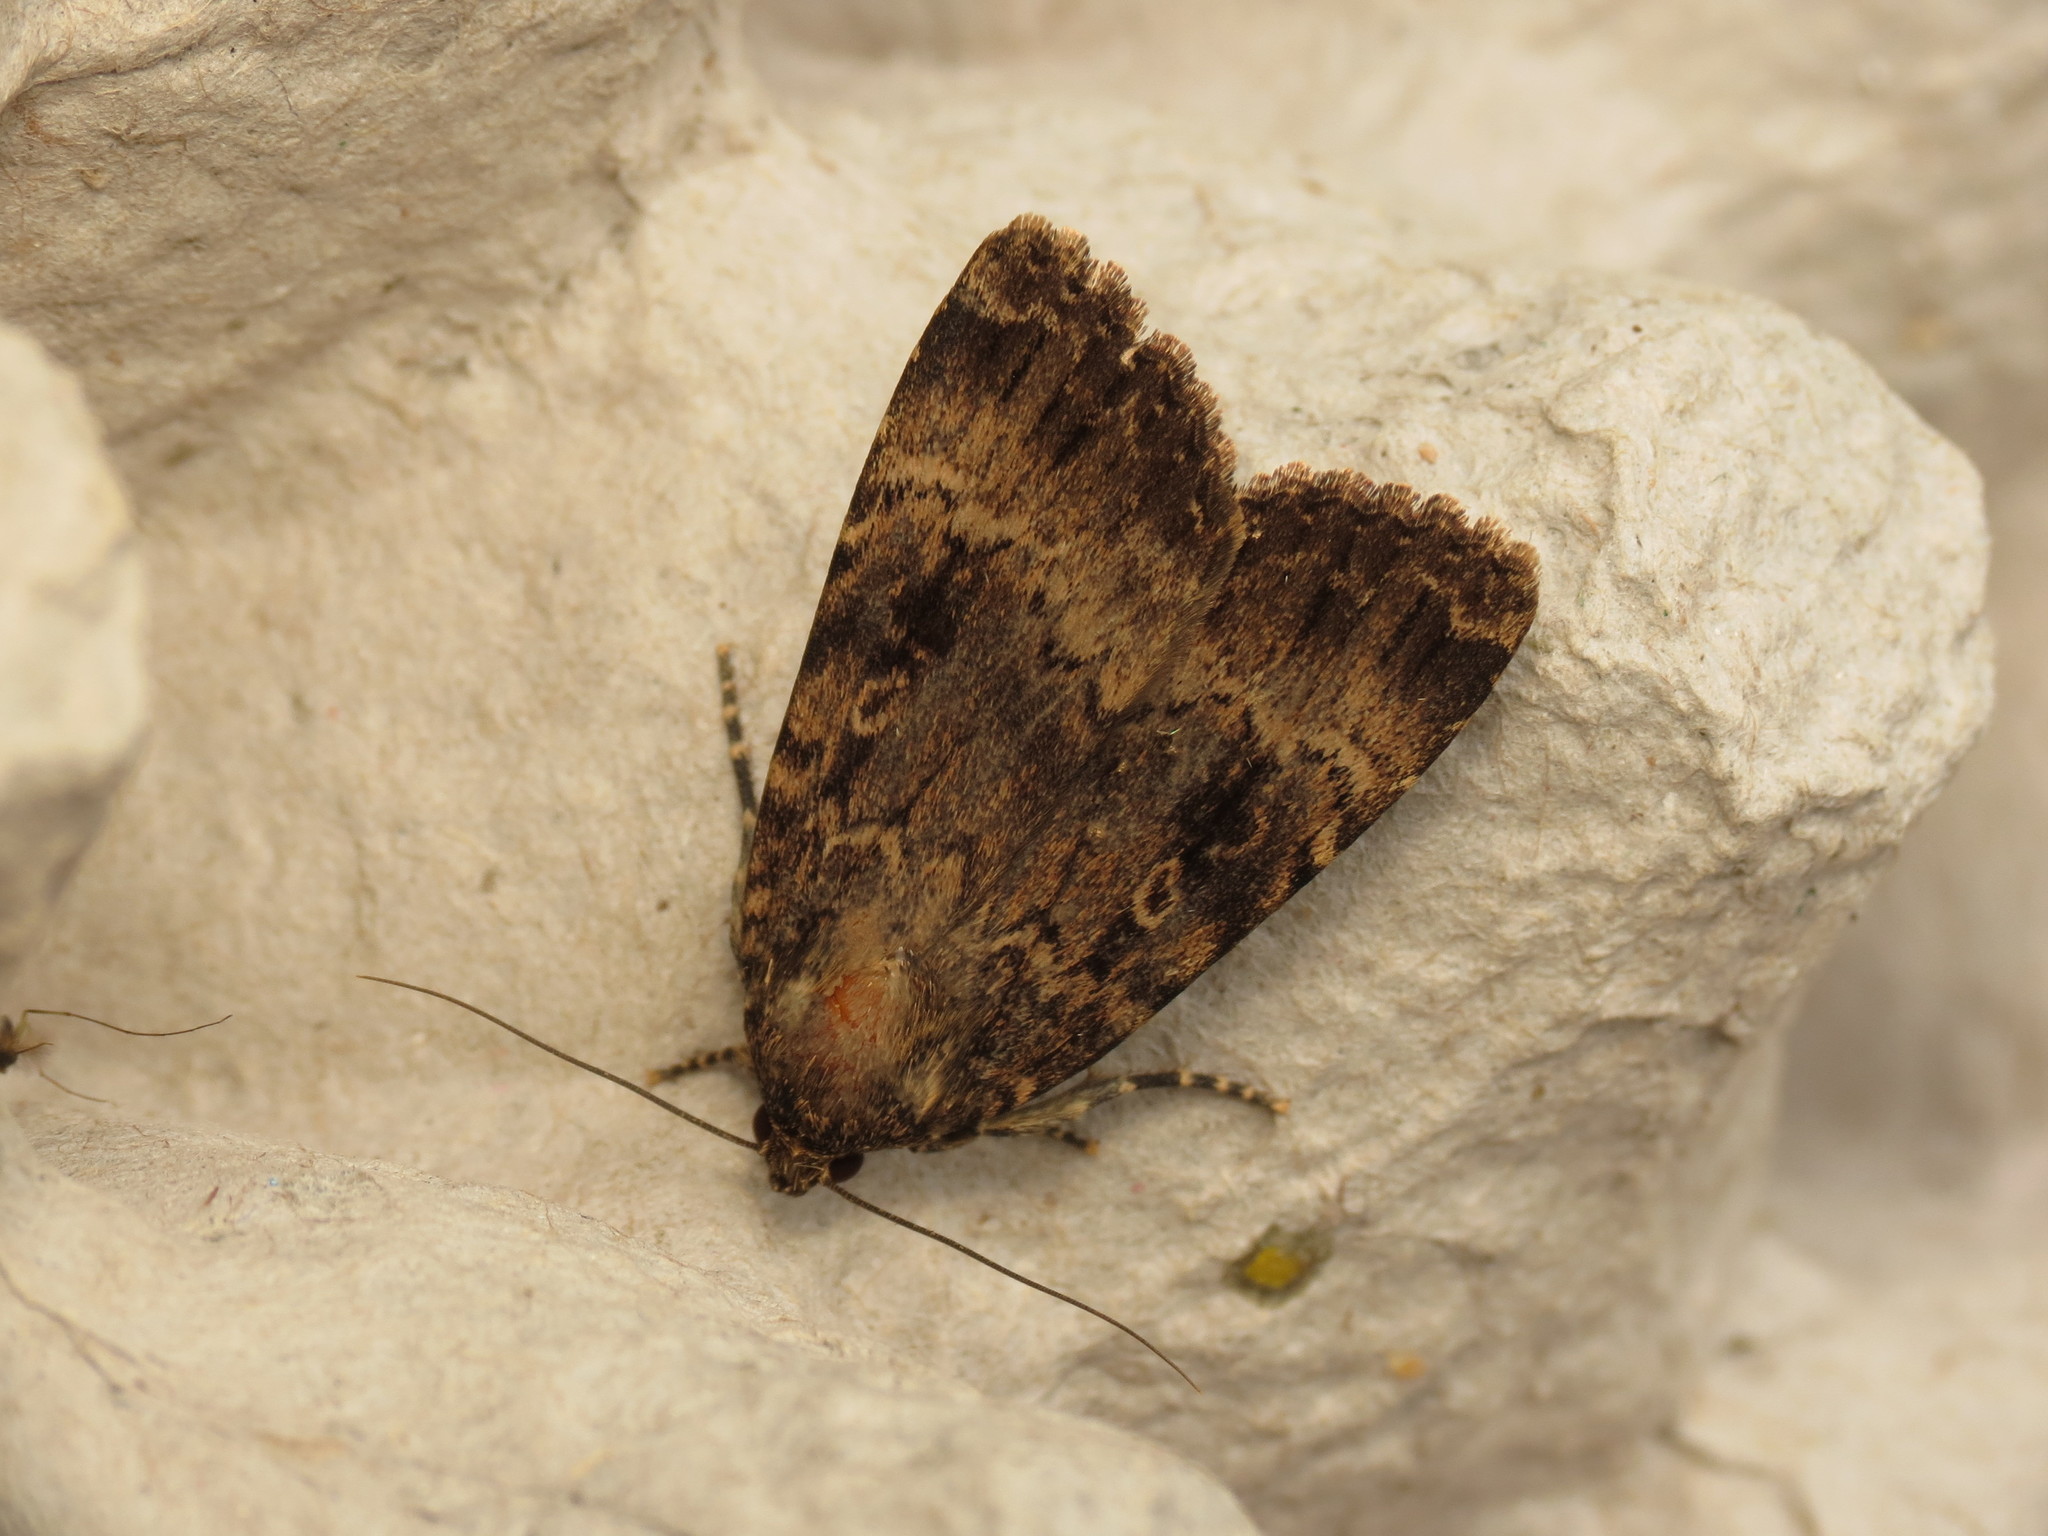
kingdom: Animalia
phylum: Arthropoda
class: Insecta
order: Lepidoptera
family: Noctuidae
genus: Amphipyra
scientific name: Amphipyra berbera
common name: Svensson's copper underwing
